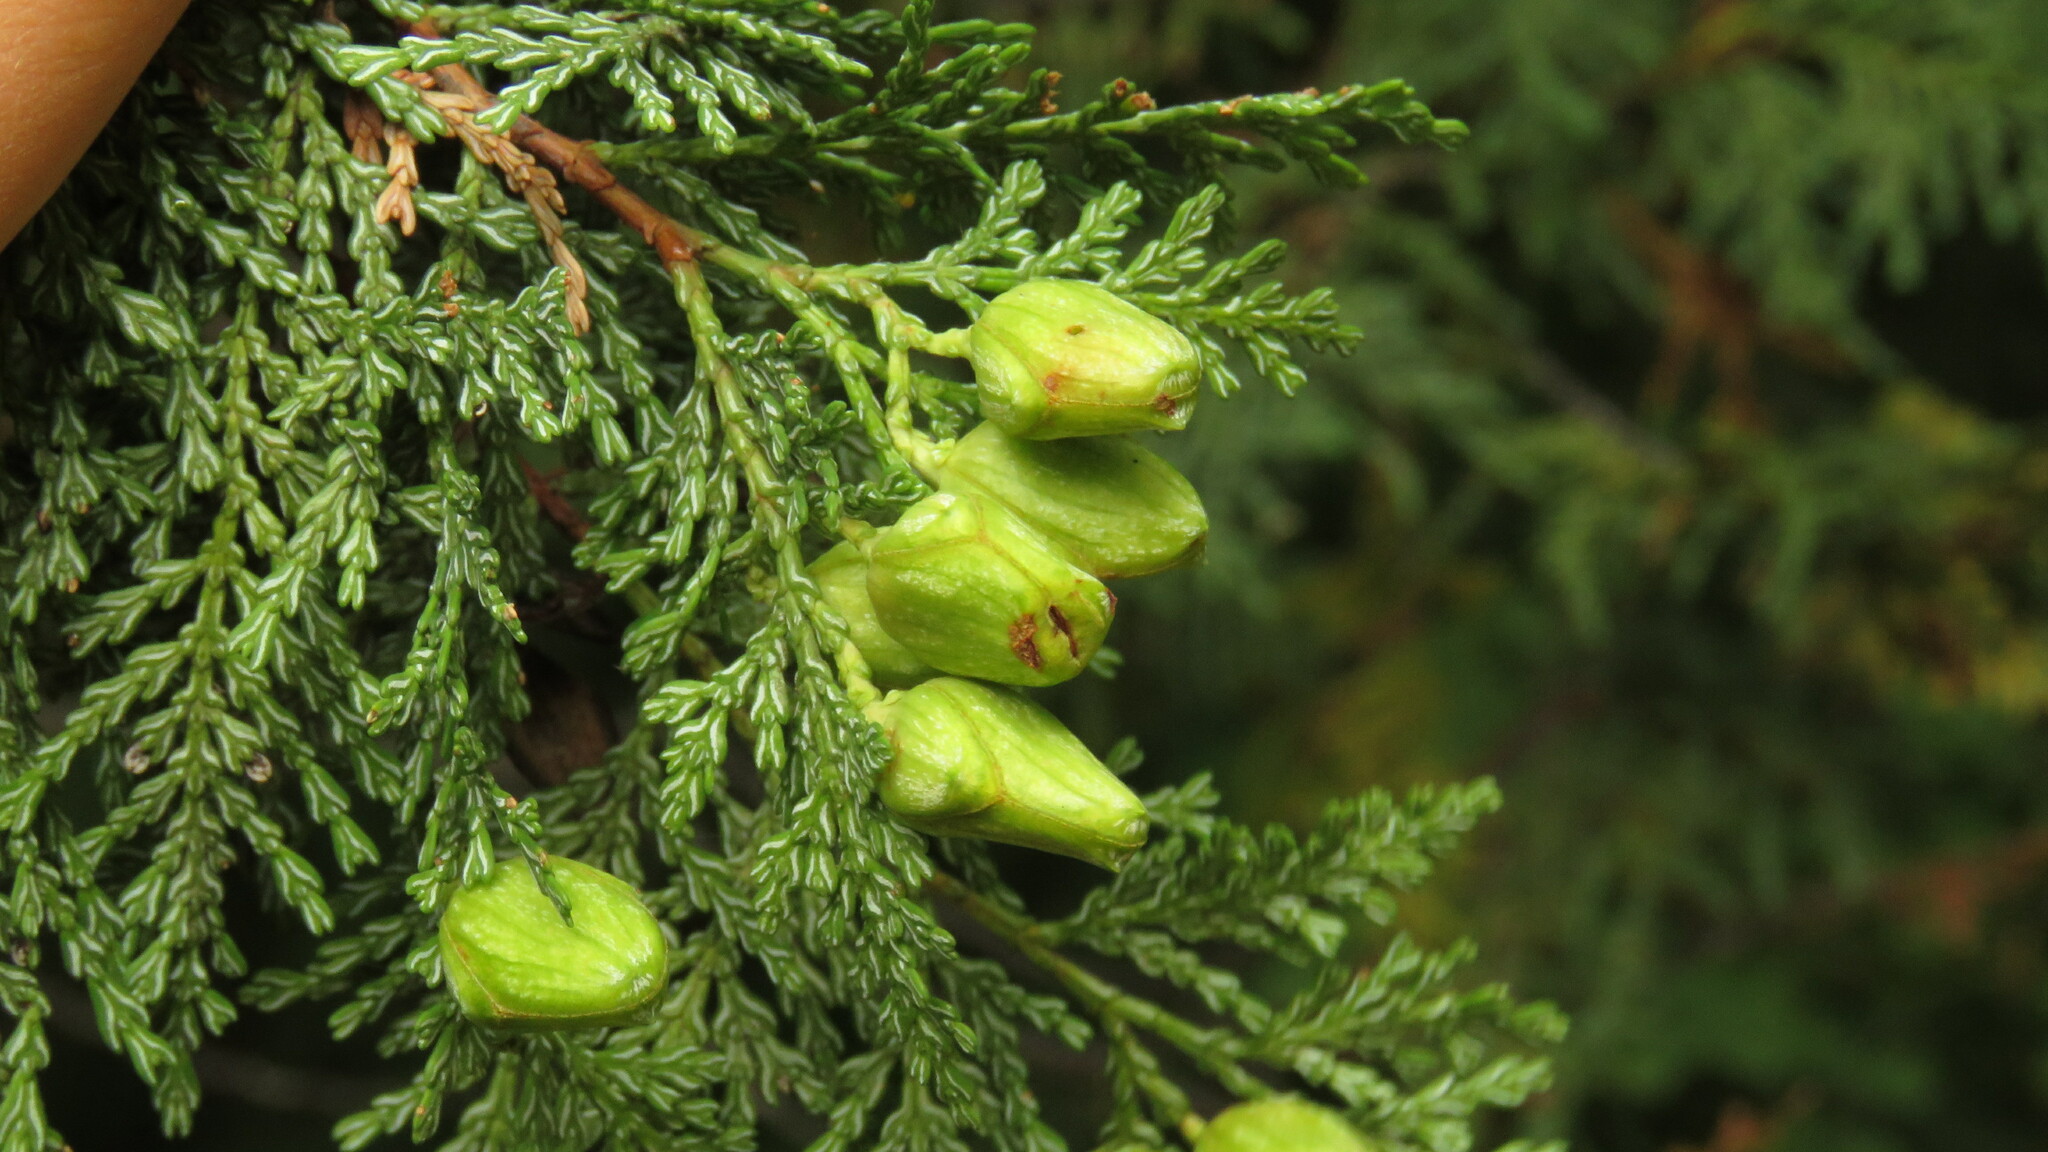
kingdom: Plantae
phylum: Tracheophyta
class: Pinopsida
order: Pinales
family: Cupressaceae
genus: Austrocedrus
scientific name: Austrocedrus chilensis
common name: Chilean incense-cedar
